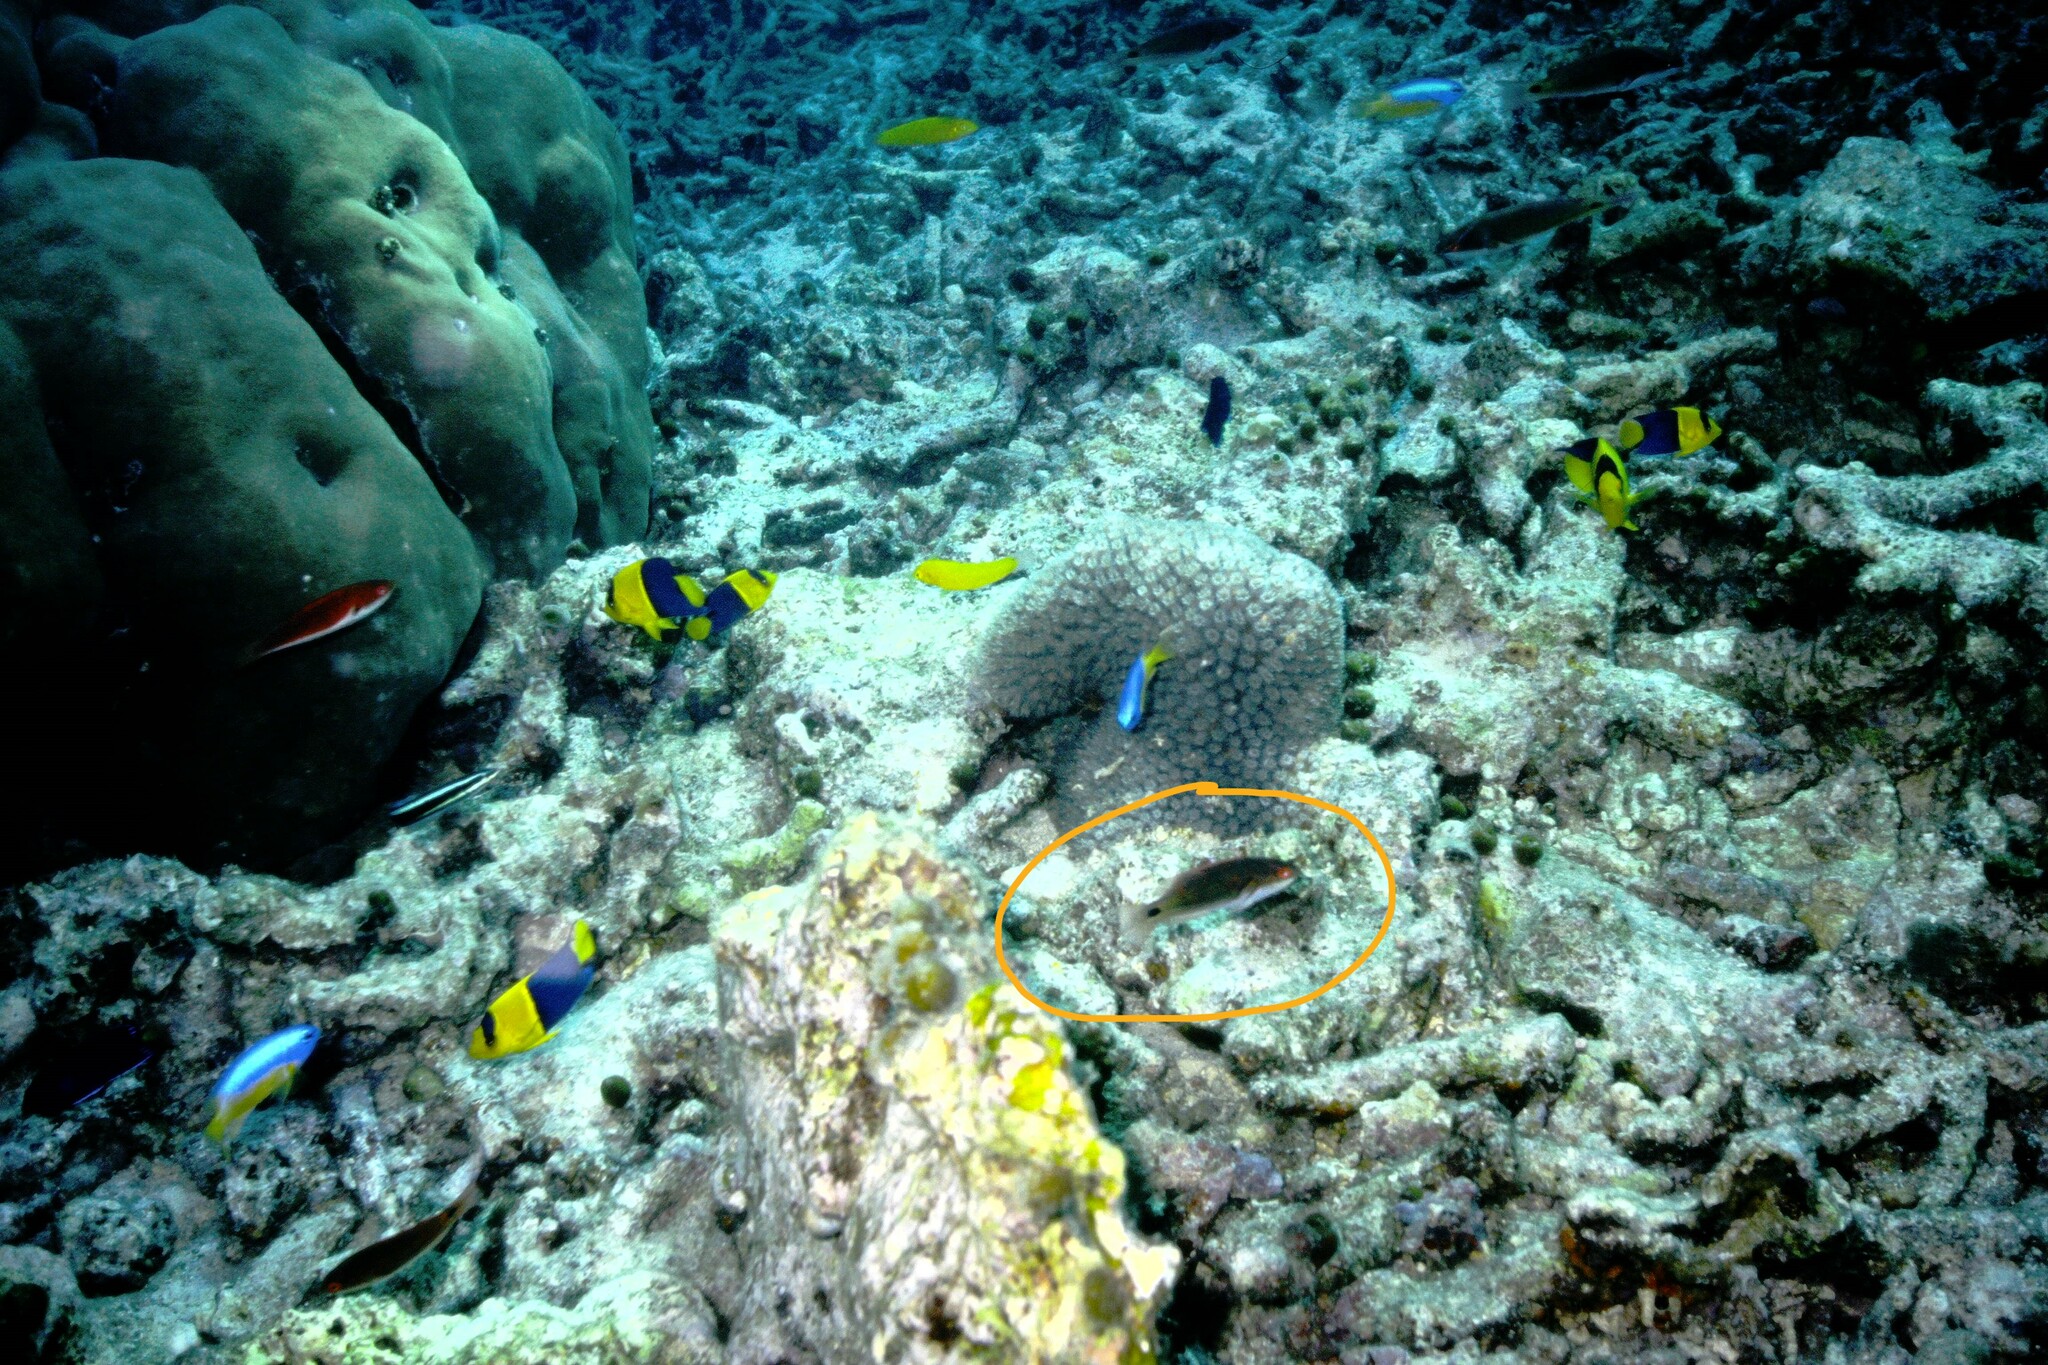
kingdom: Animalia
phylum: Chordata
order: Perciformes
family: Labridae
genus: Cirrhilabrus
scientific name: Cirrhilabrus exquisitus
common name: Exquisite wrasse
